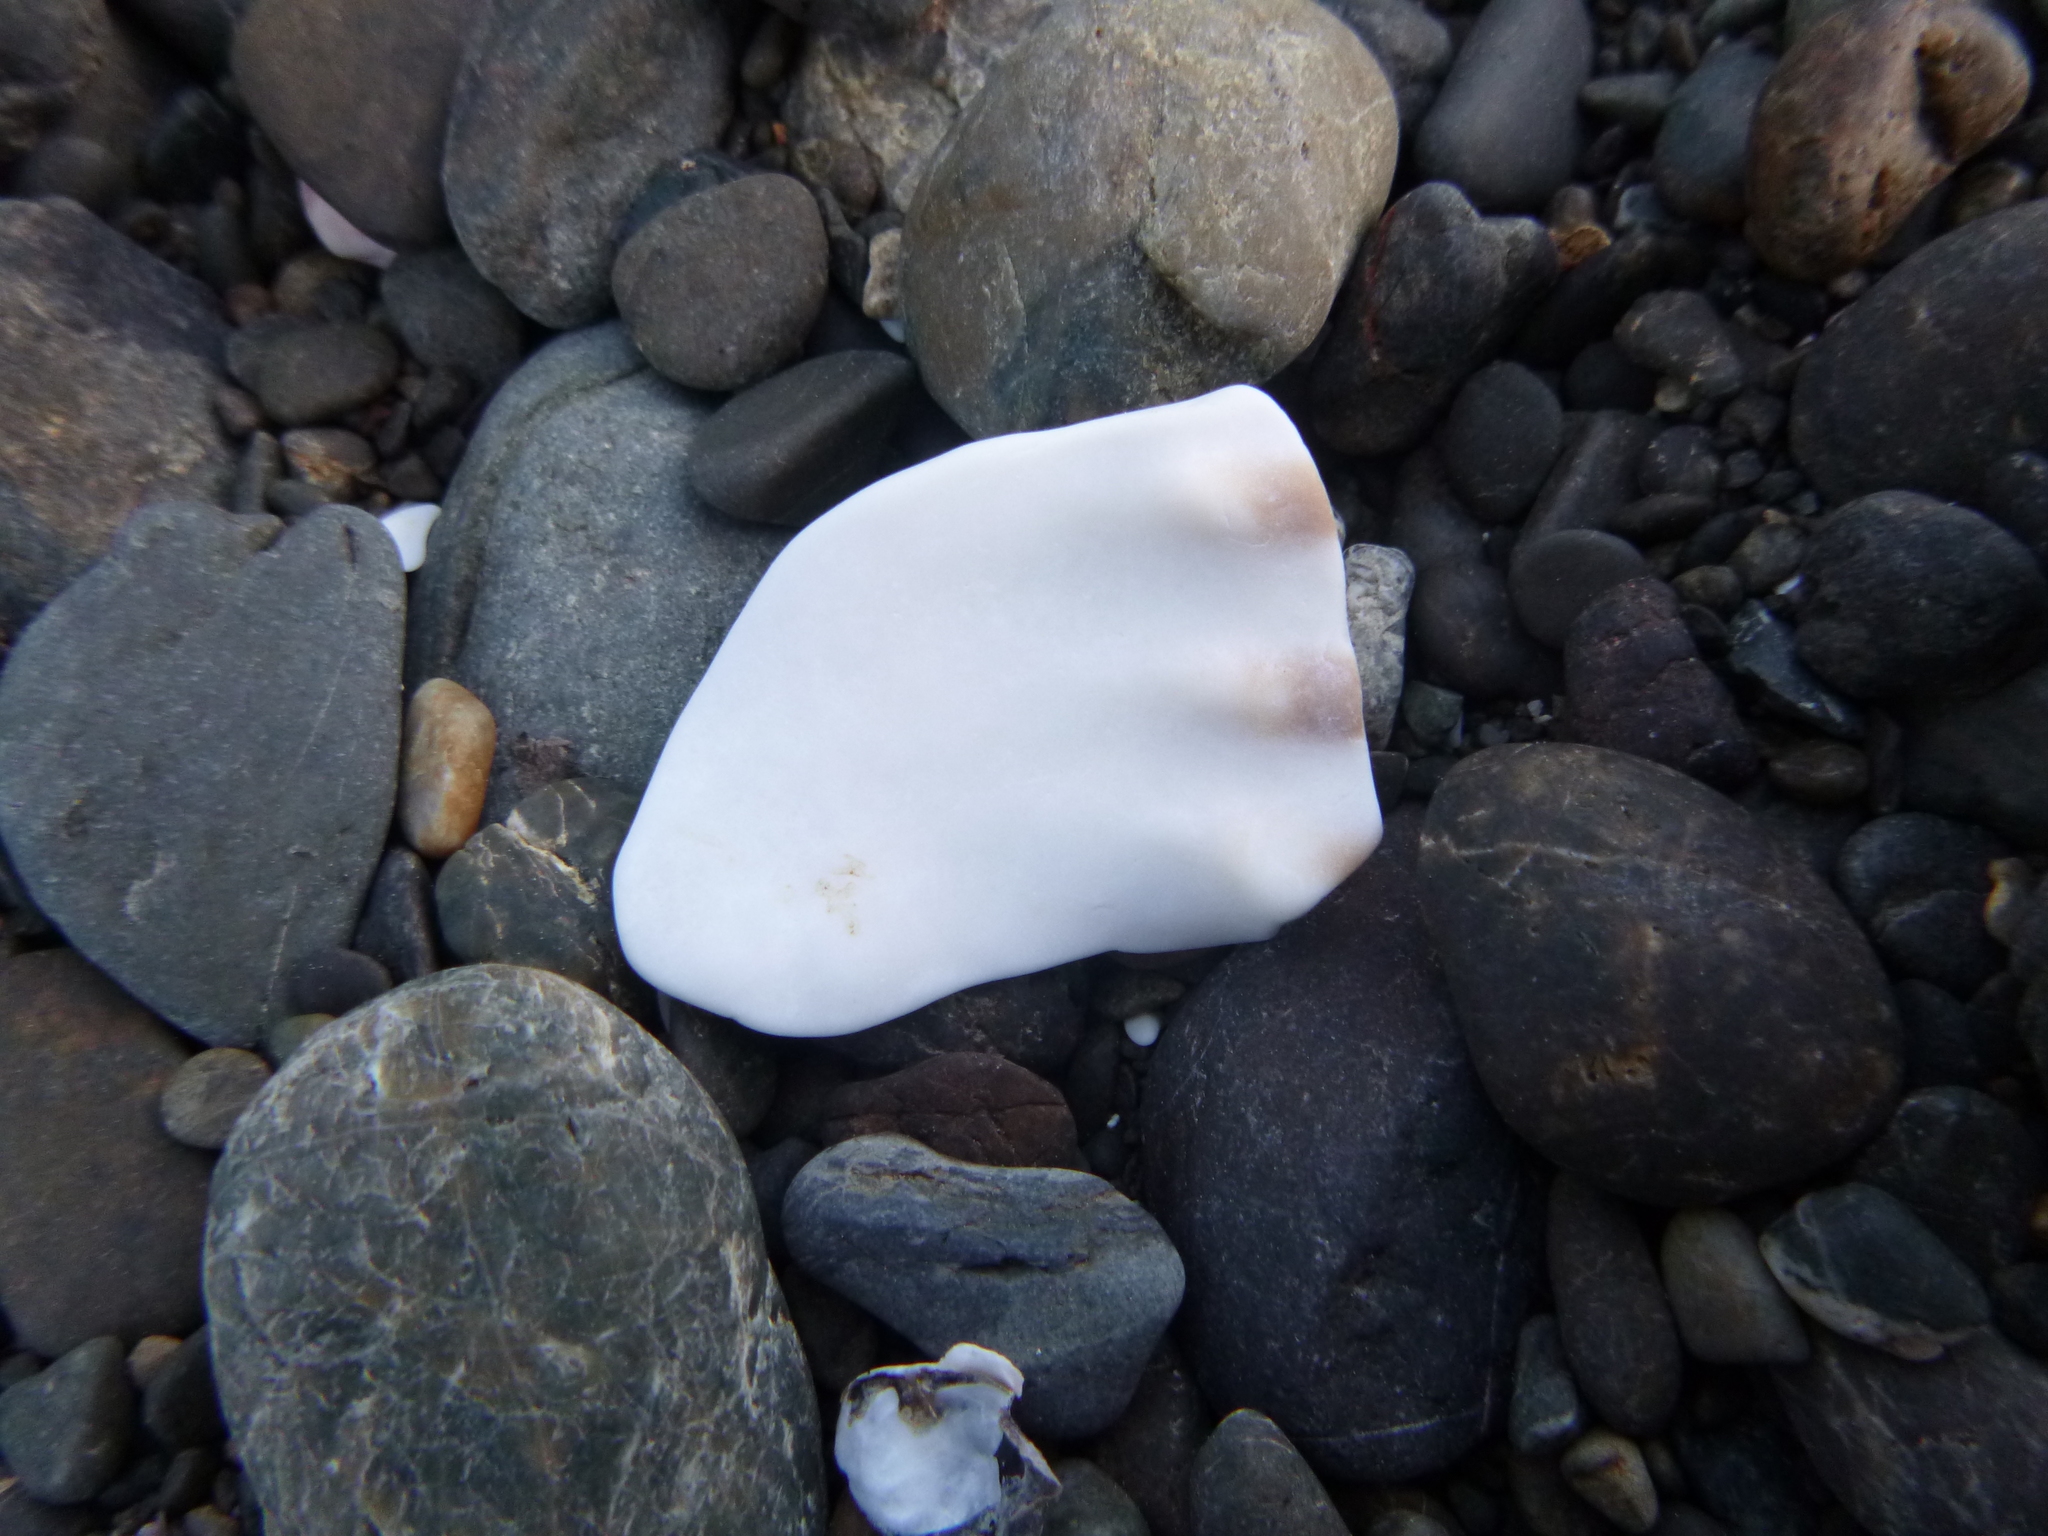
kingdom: Animalia
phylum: Mollusca
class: Gastropoda
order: Littorinimorpha
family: Charoniidae
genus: Charonia
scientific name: Charonia lampas
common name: Knobbed triton
